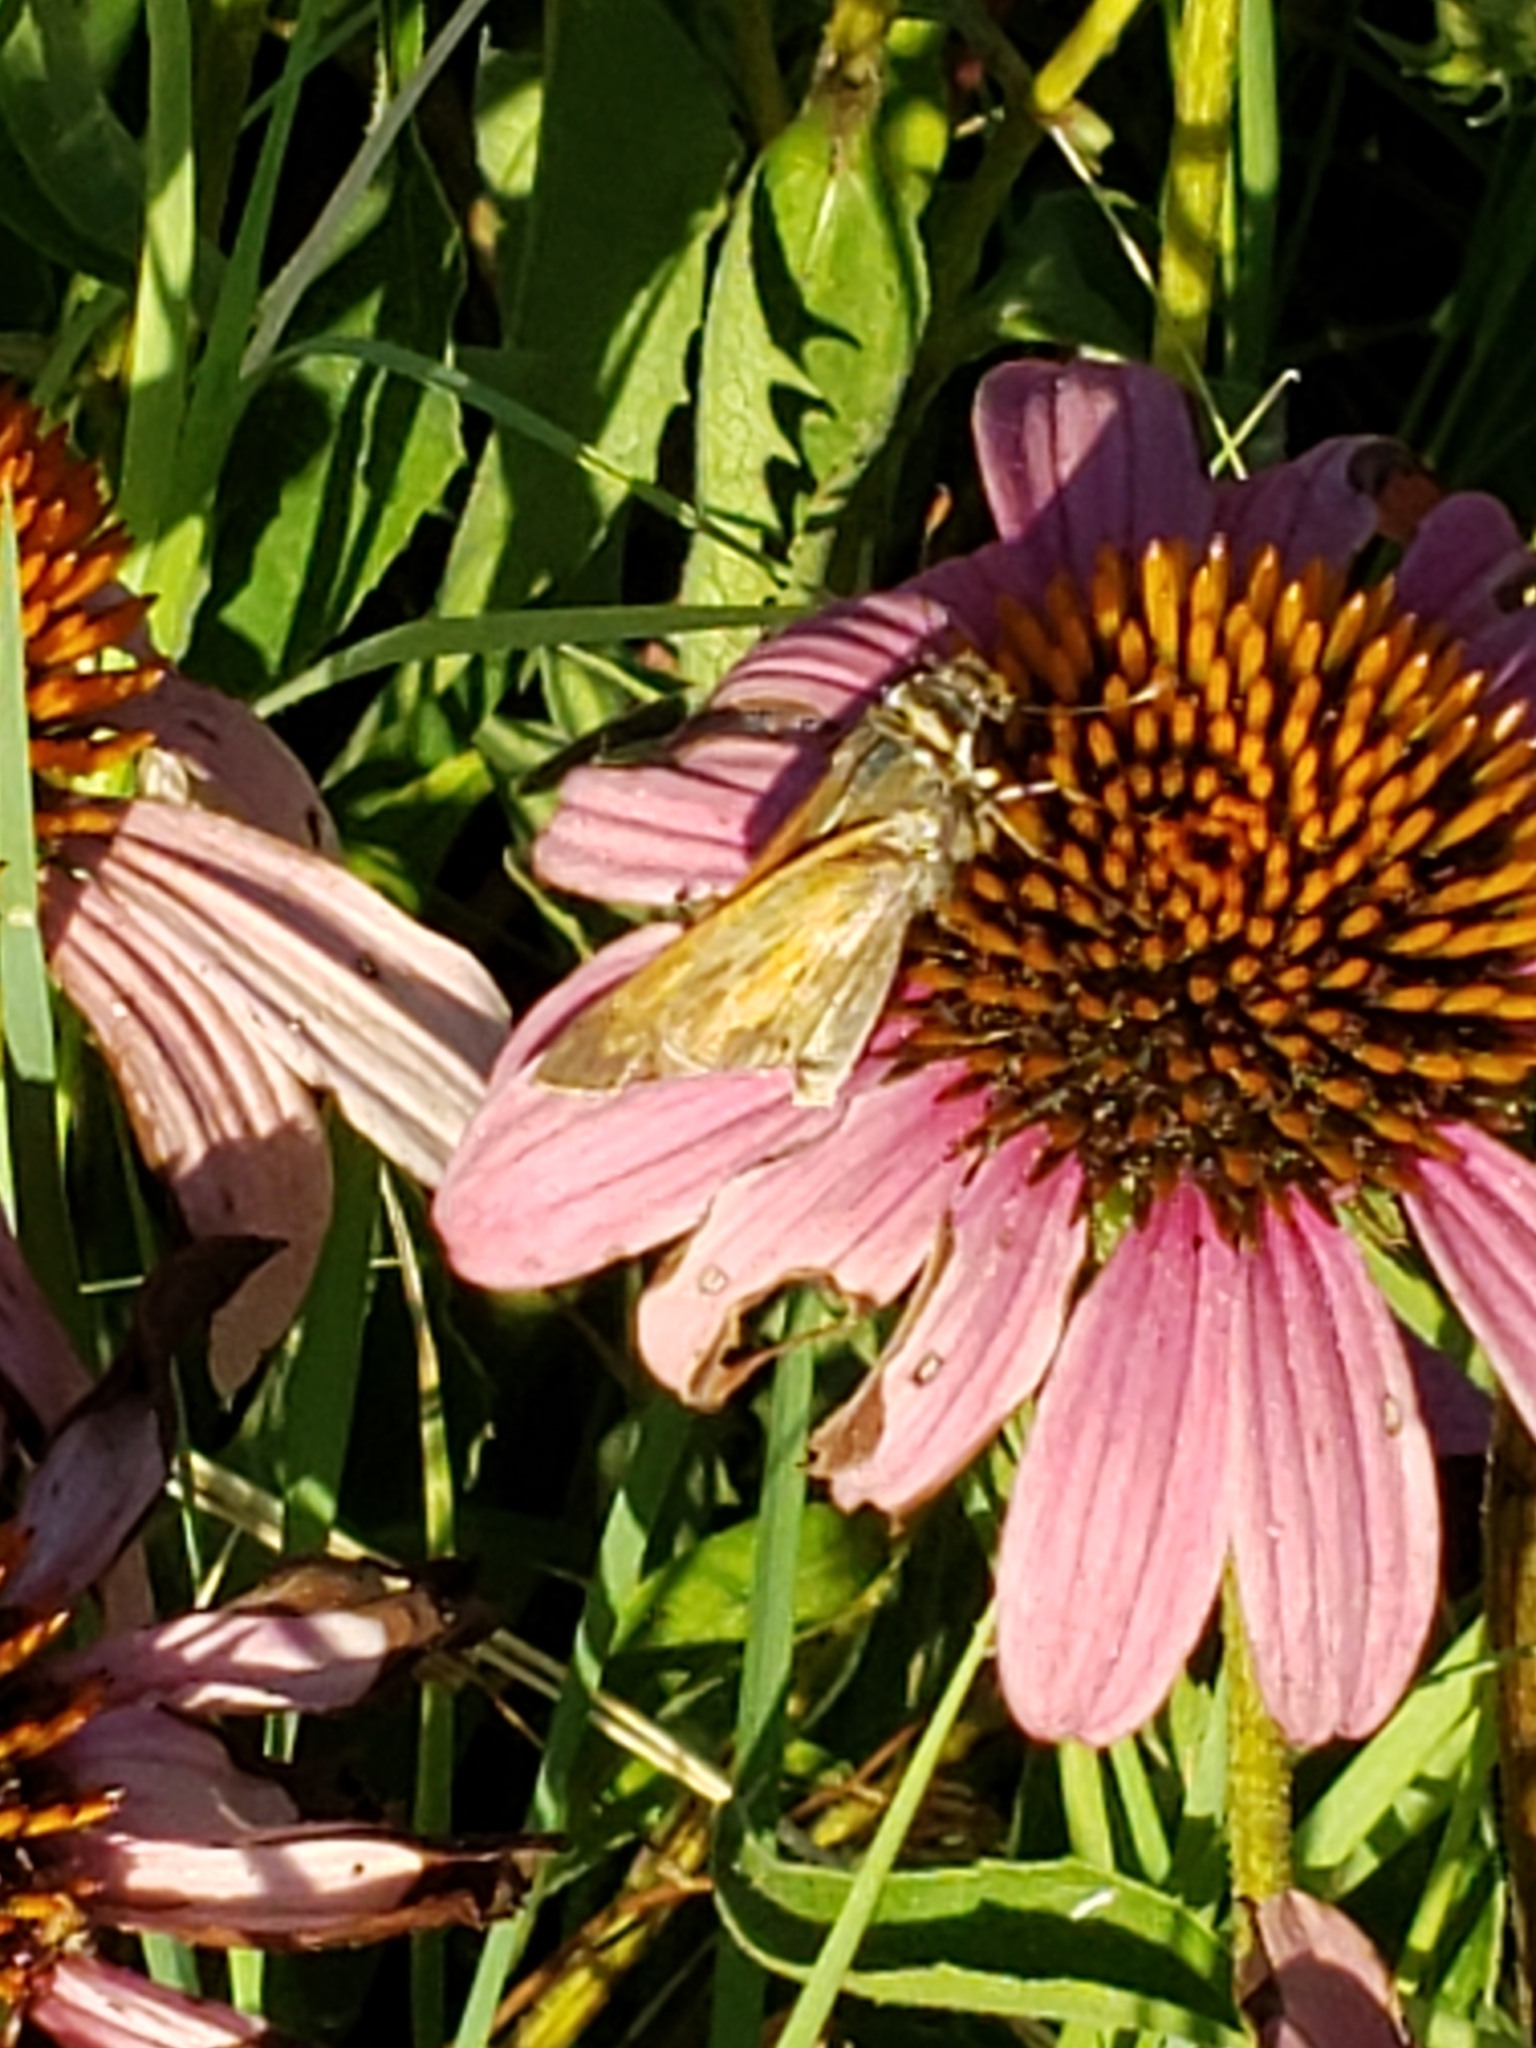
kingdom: Animalia
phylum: Arthropoda
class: Insecta
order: Lepidoptera
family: Hesperiidae
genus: Atalopedes
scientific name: Atalopedes
